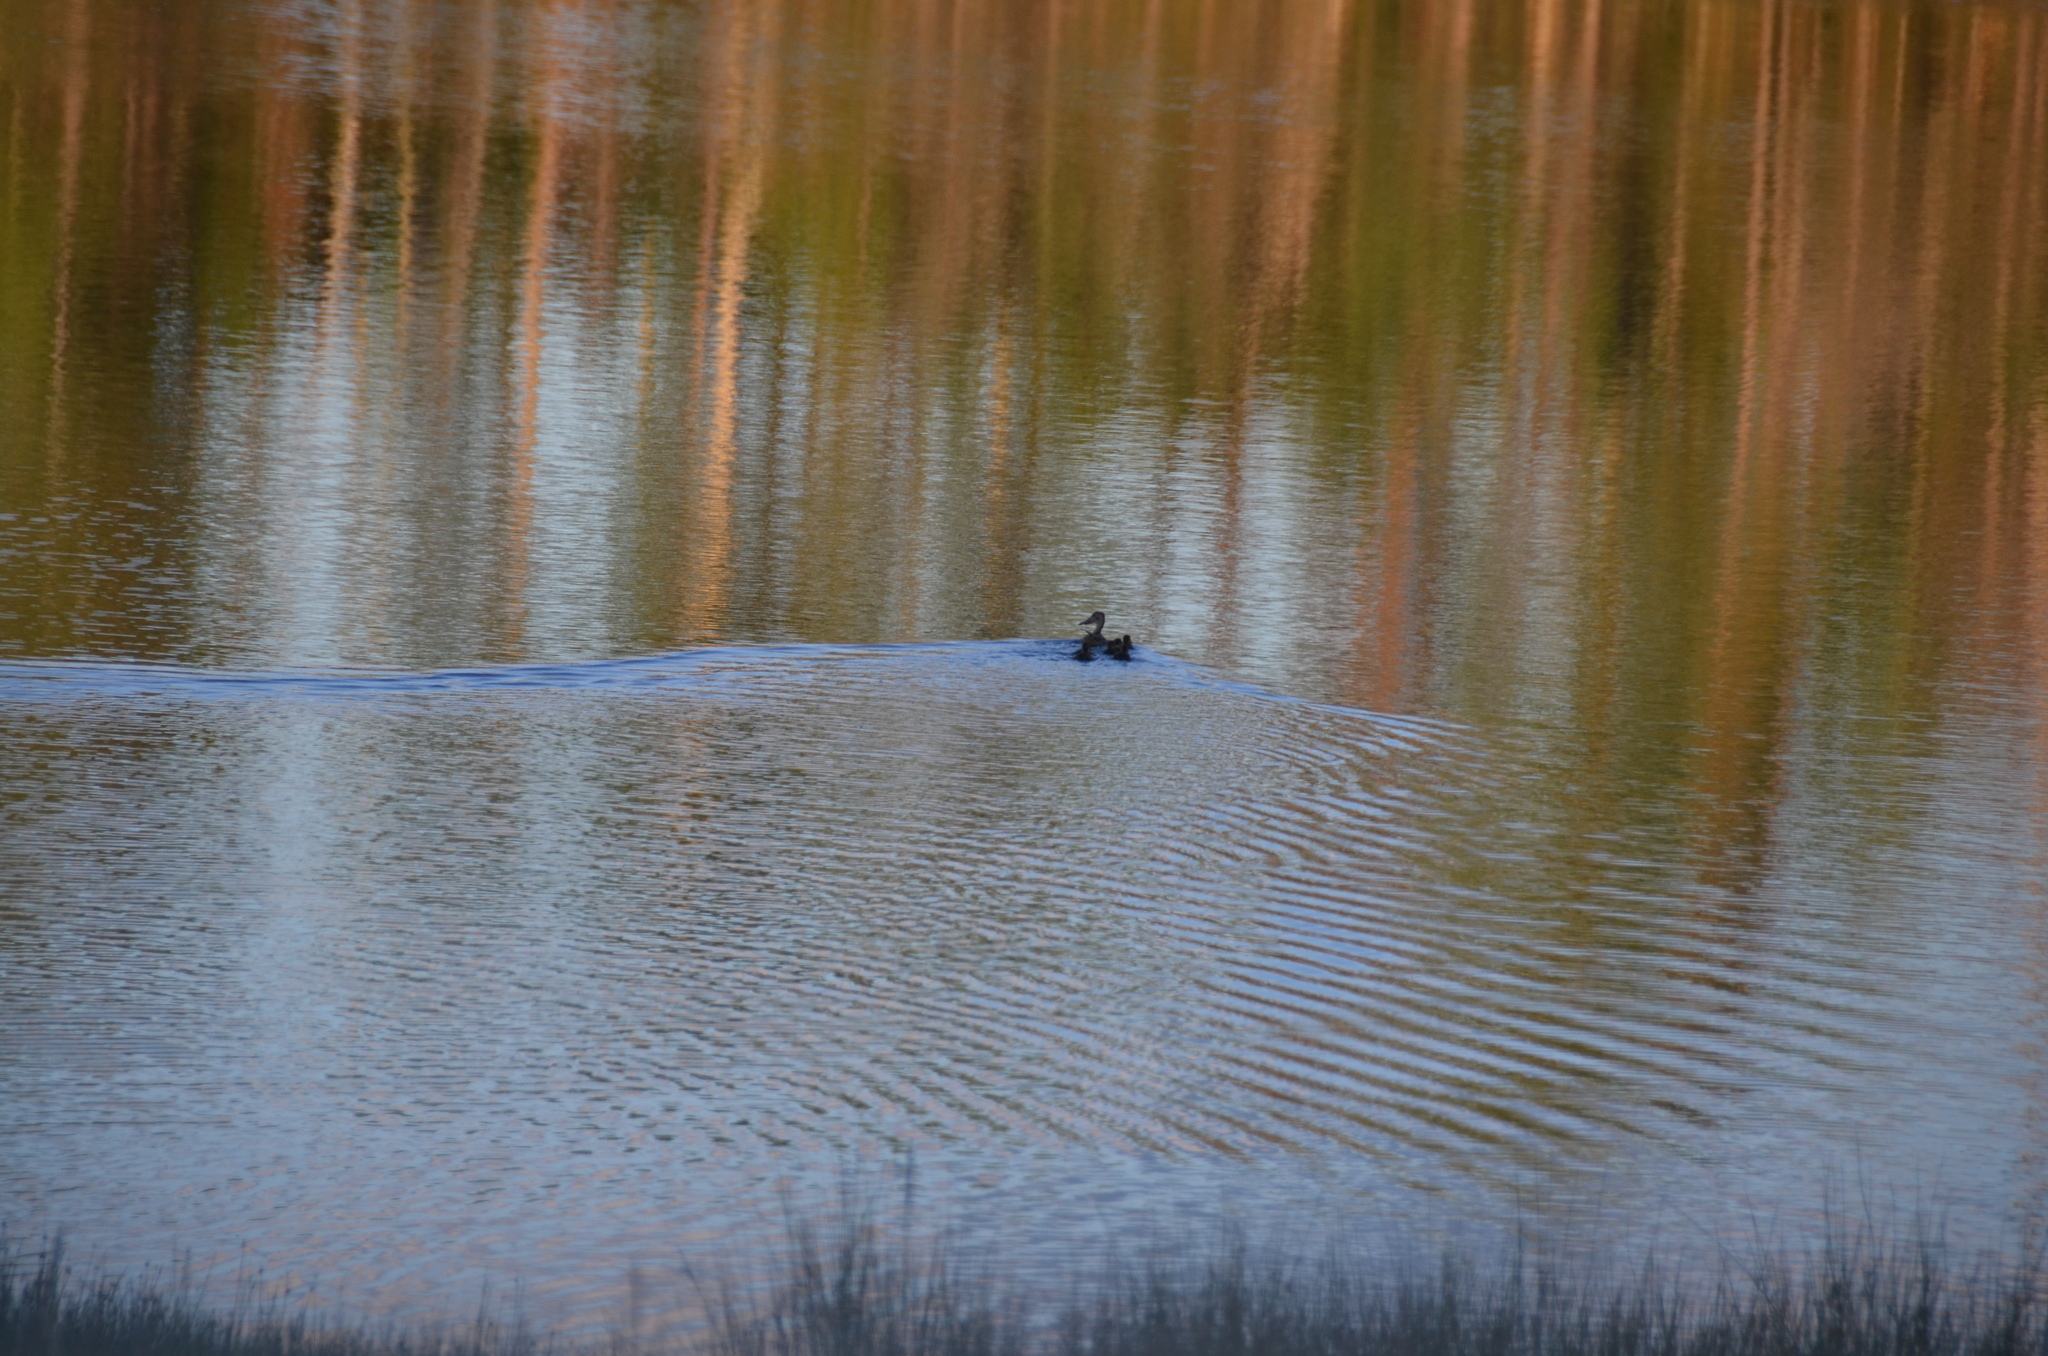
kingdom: Animalia
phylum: Chordata
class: Aves
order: Anseriformes
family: Anatidae
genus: Spatula
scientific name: Spatula clypeata
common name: Northern shoveler
